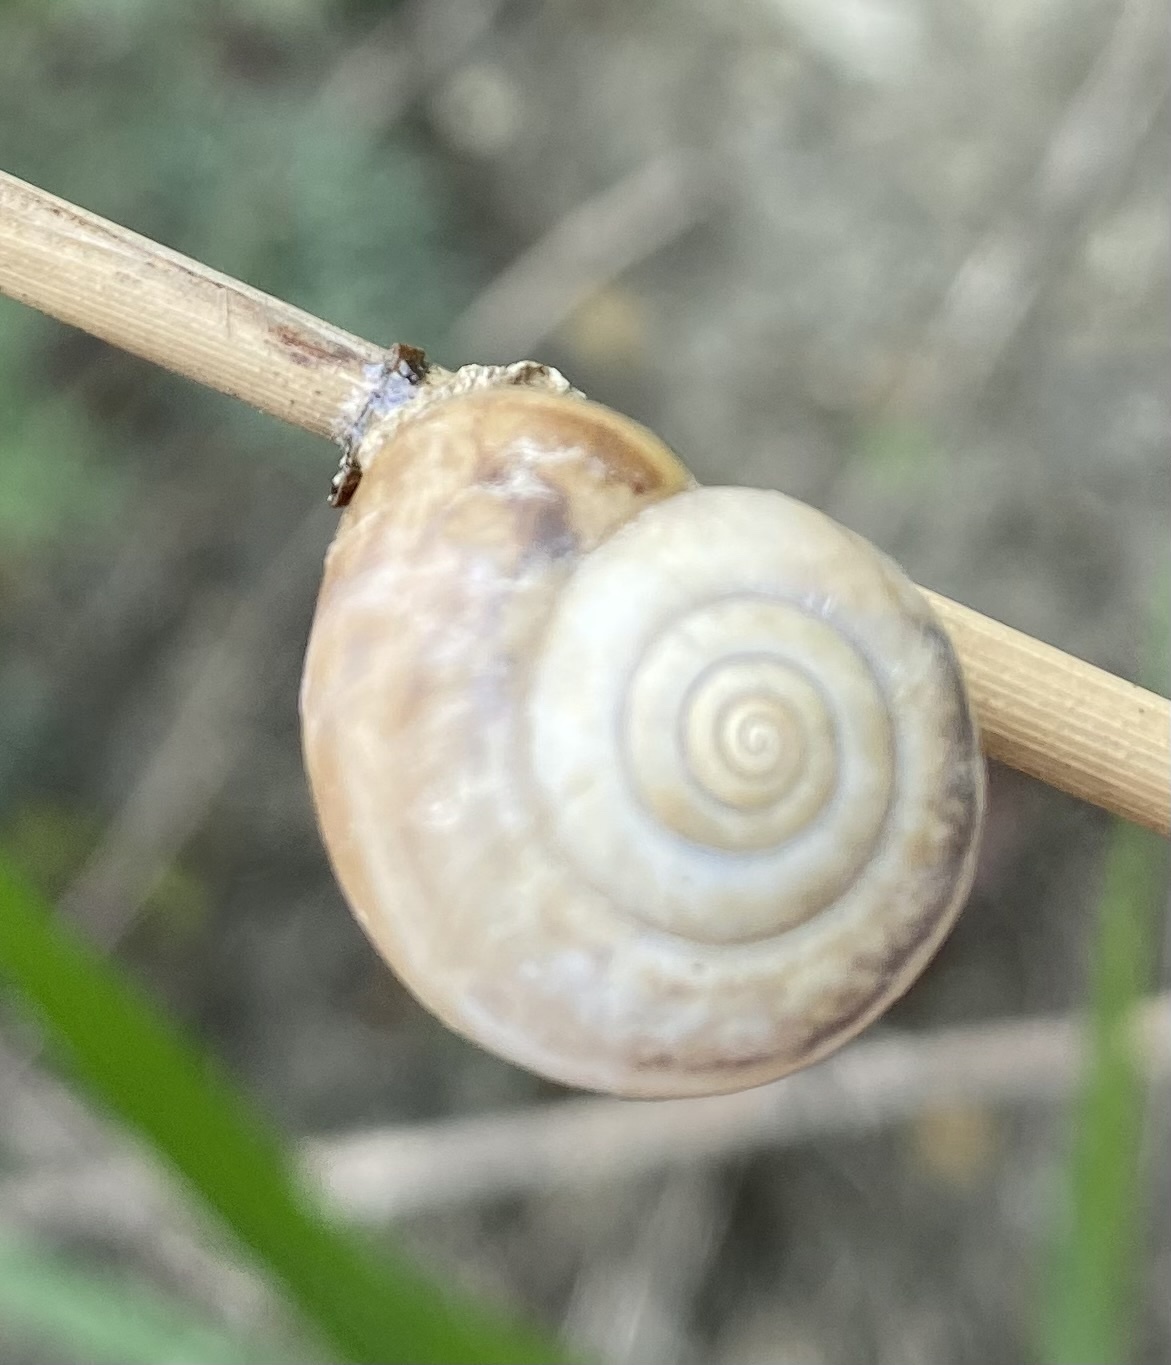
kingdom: Animalia
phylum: Mollusca
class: Gastropoda
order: Stylommatophora
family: Hygromiidae
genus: Monacha
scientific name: Monacha cartusiana
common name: Carthusian snail
